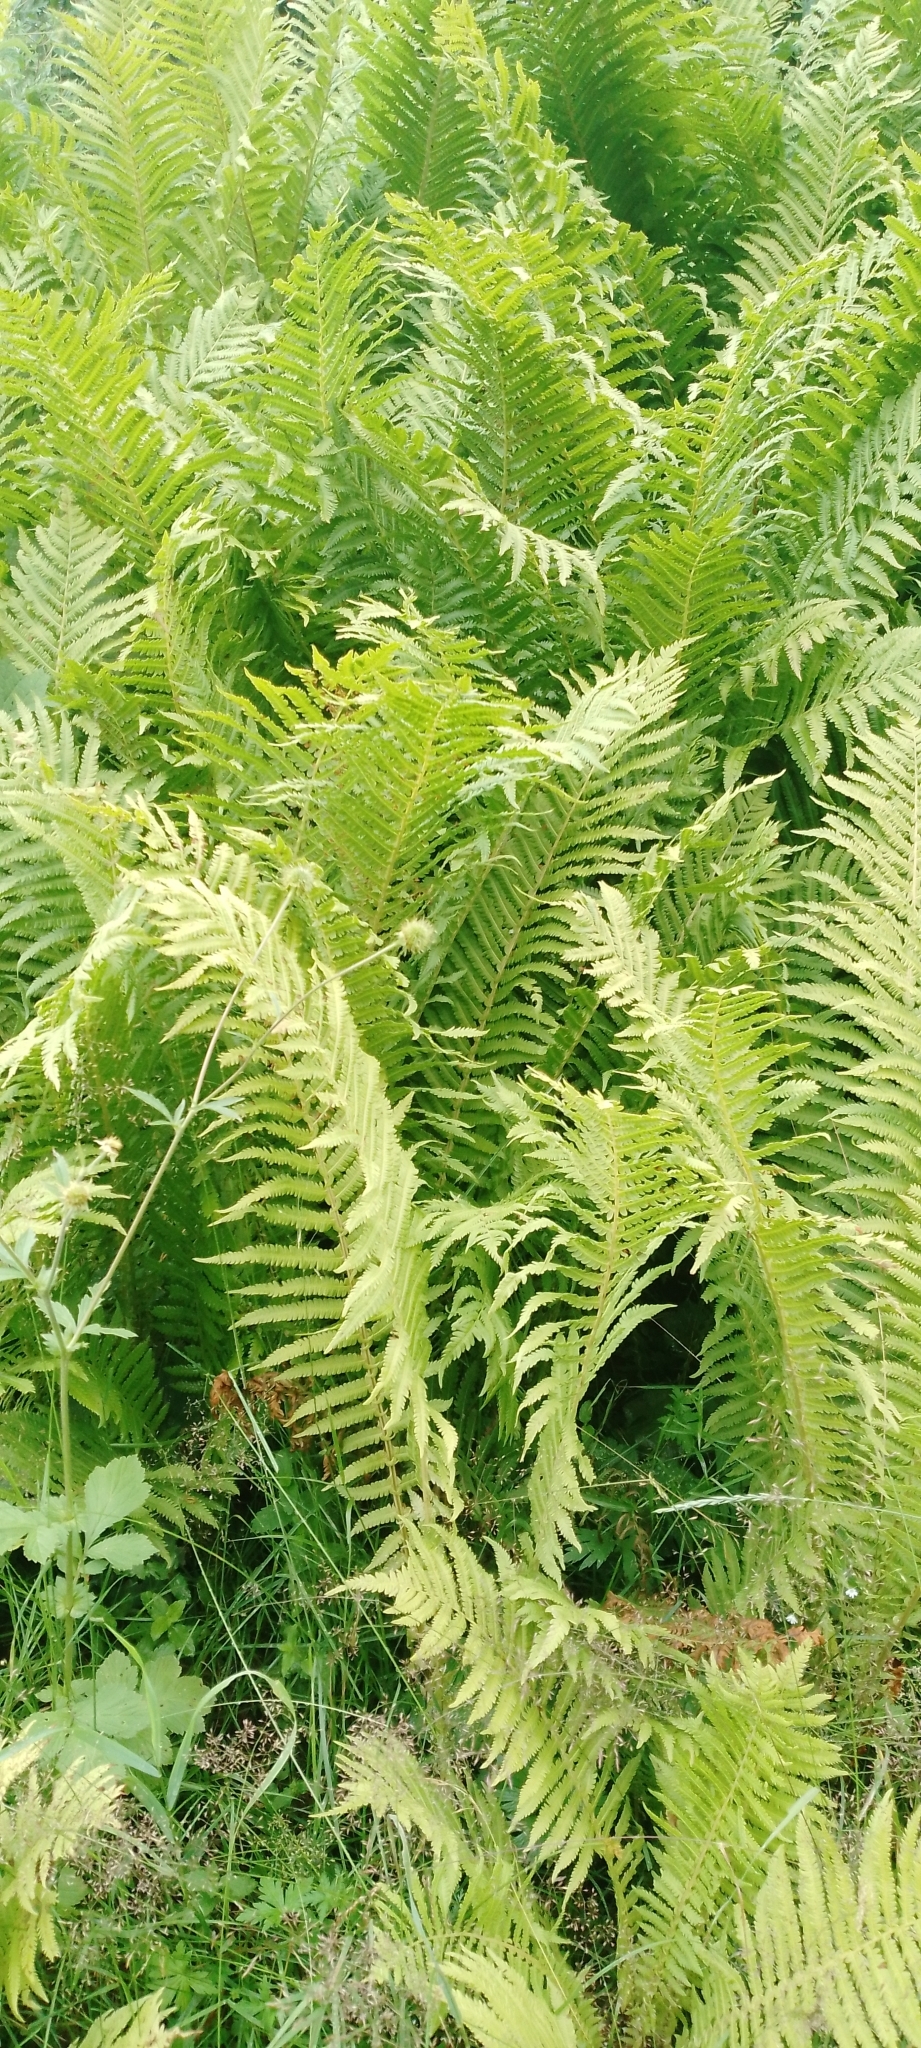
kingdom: Plantae
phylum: Tracheophyta
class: Polypodiopsida
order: Polypodiales
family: Onocleaceae
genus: Matteuccia
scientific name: Matteuccia struthiopteris
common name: Ostrich fern
